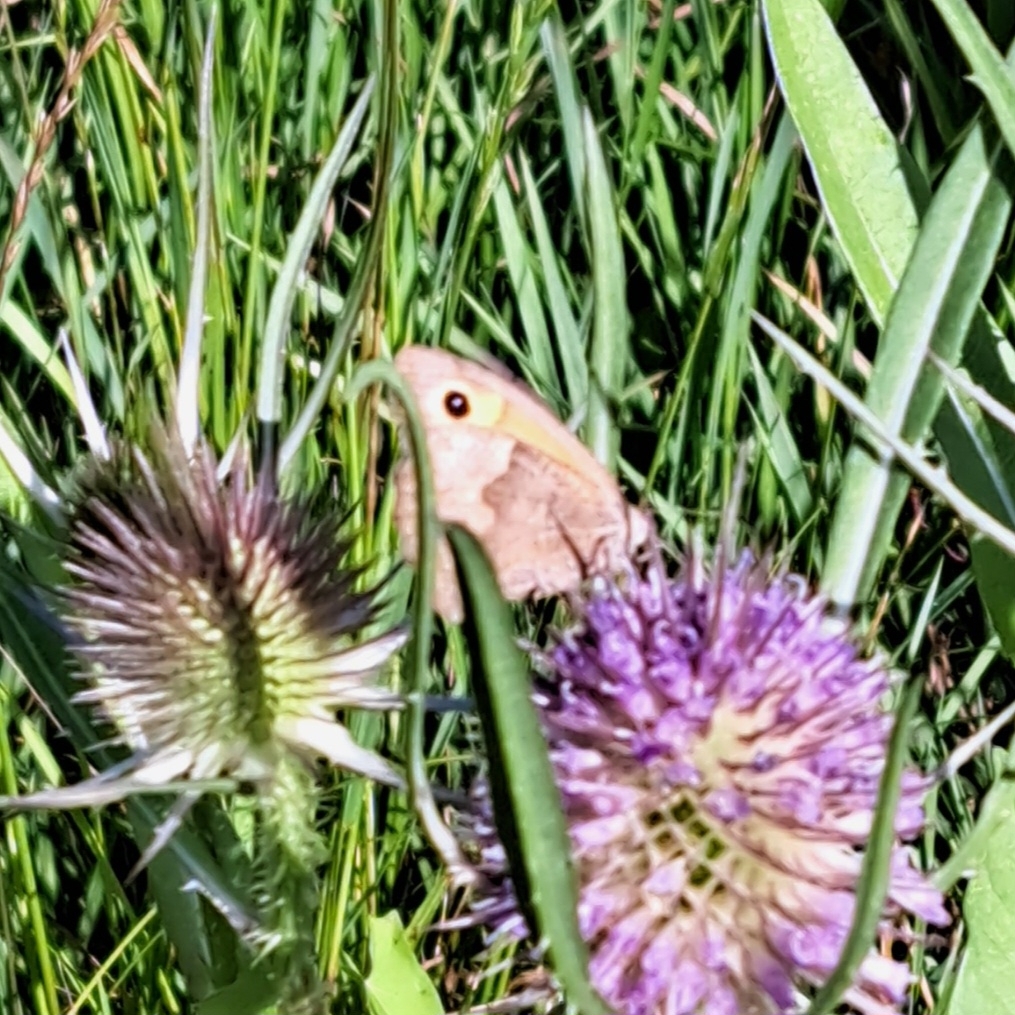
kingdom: Animalia
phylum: Arthropoda
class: Insecta
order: Lepidoptera
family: Nymphalidae
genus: Maniola
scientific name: Maniola jurtina
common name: Meadow brown
